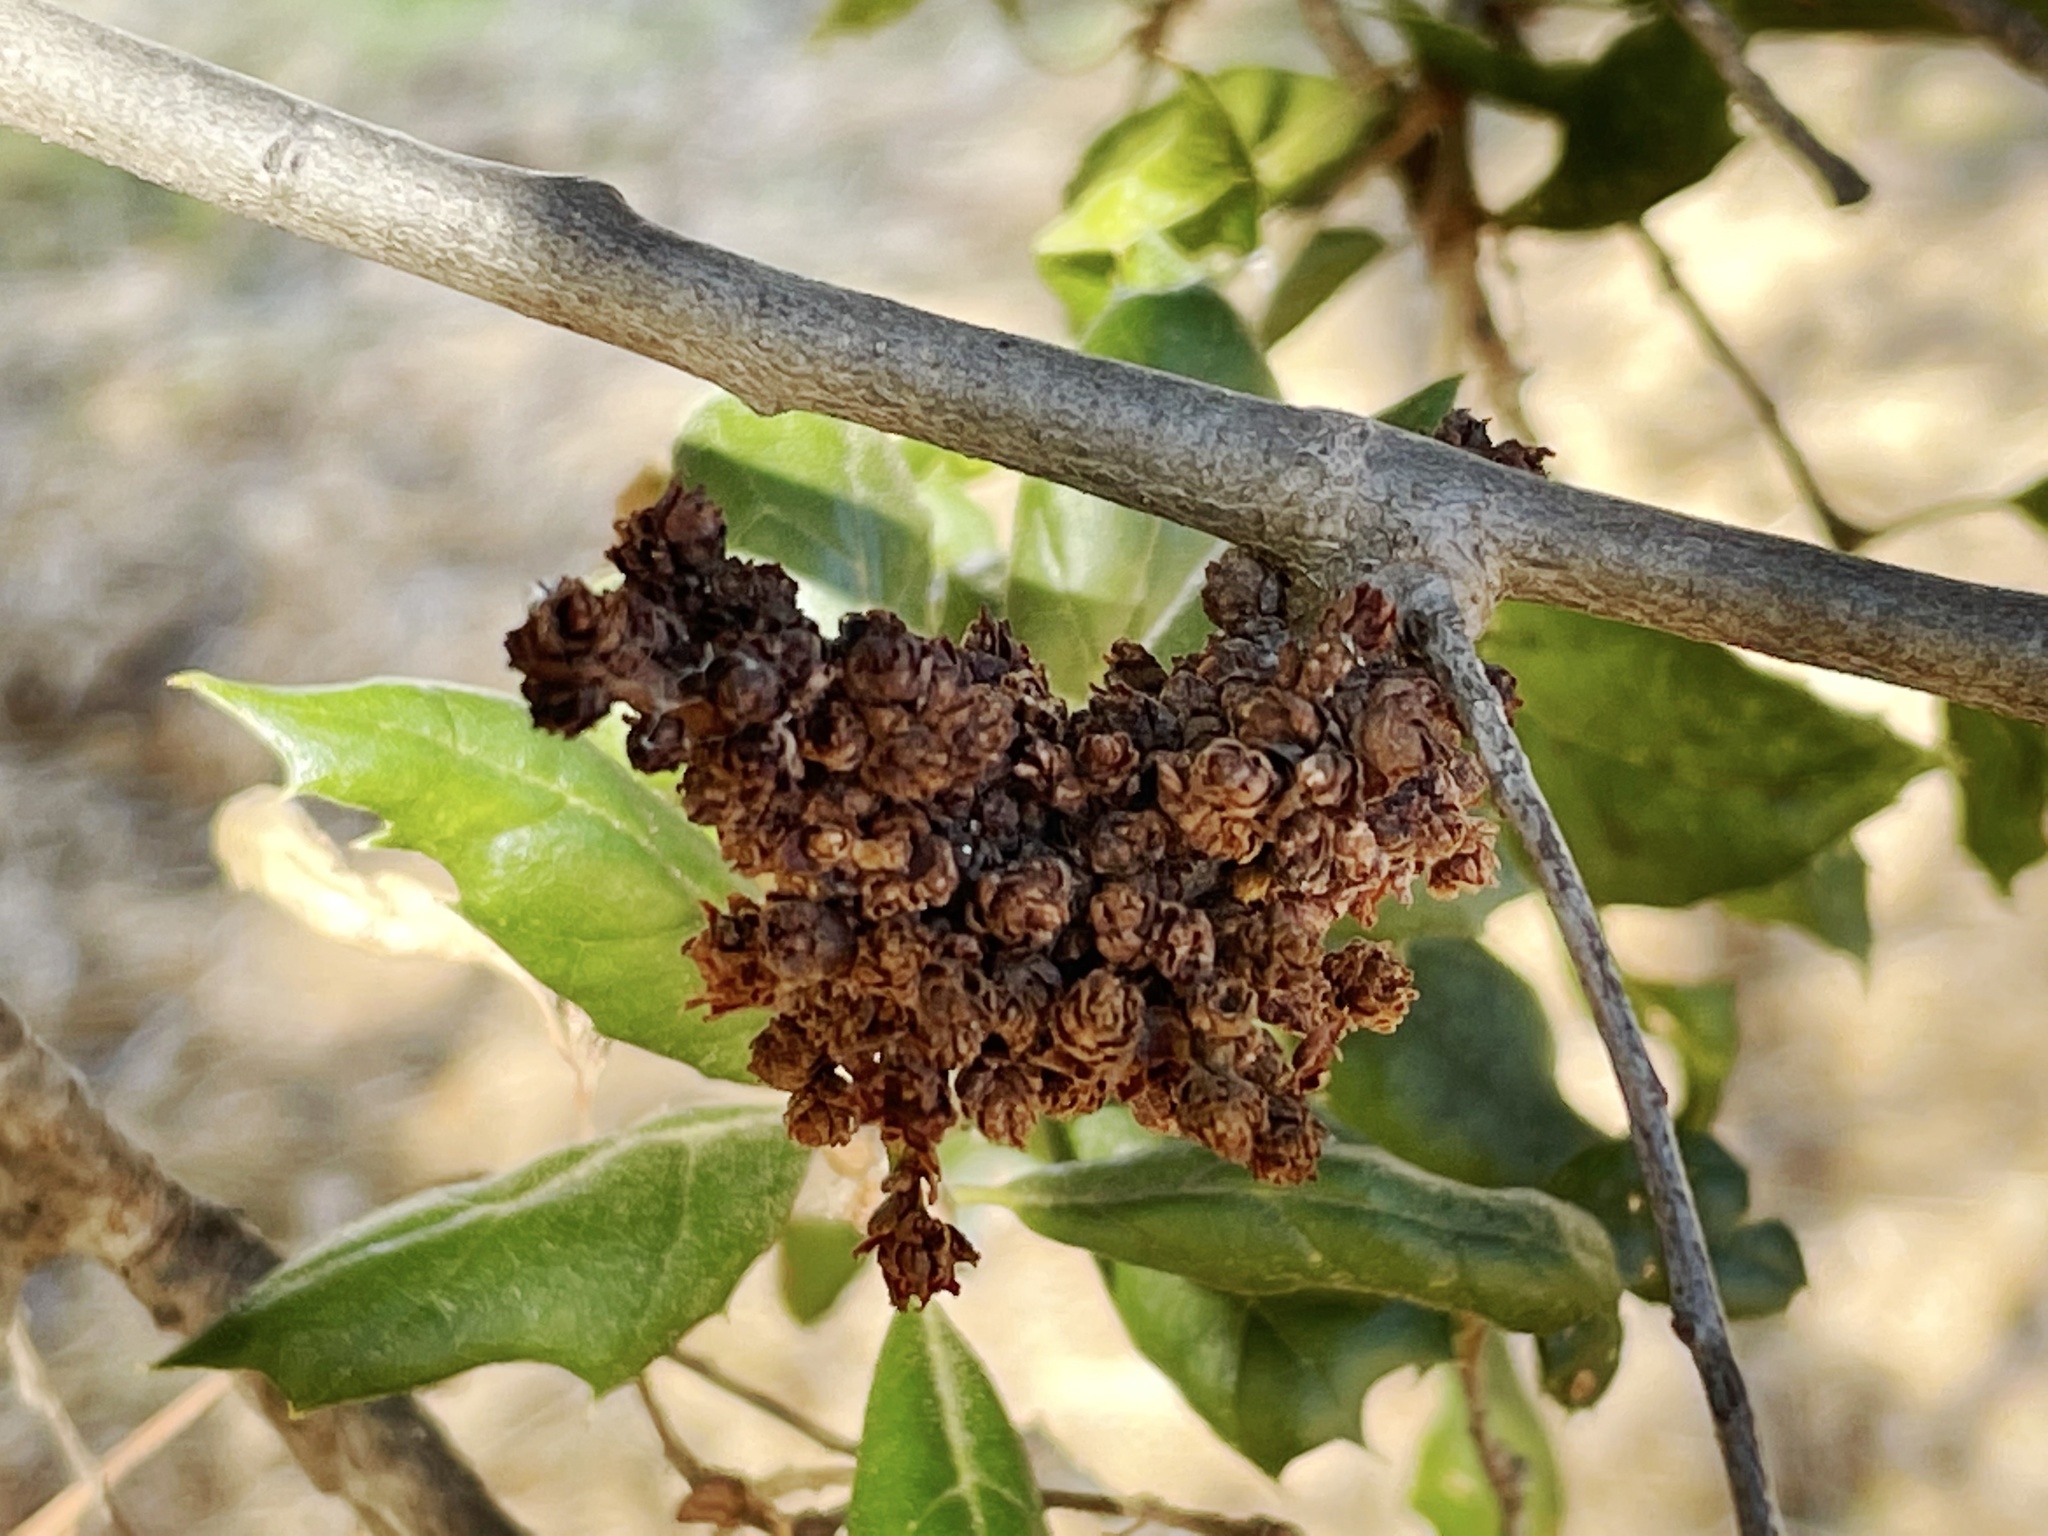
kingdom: Animalia
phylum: Arthropoda
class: Arachnida
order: Trombidiformes
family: Eriophyidae
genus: Aceria
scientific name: Aceria
